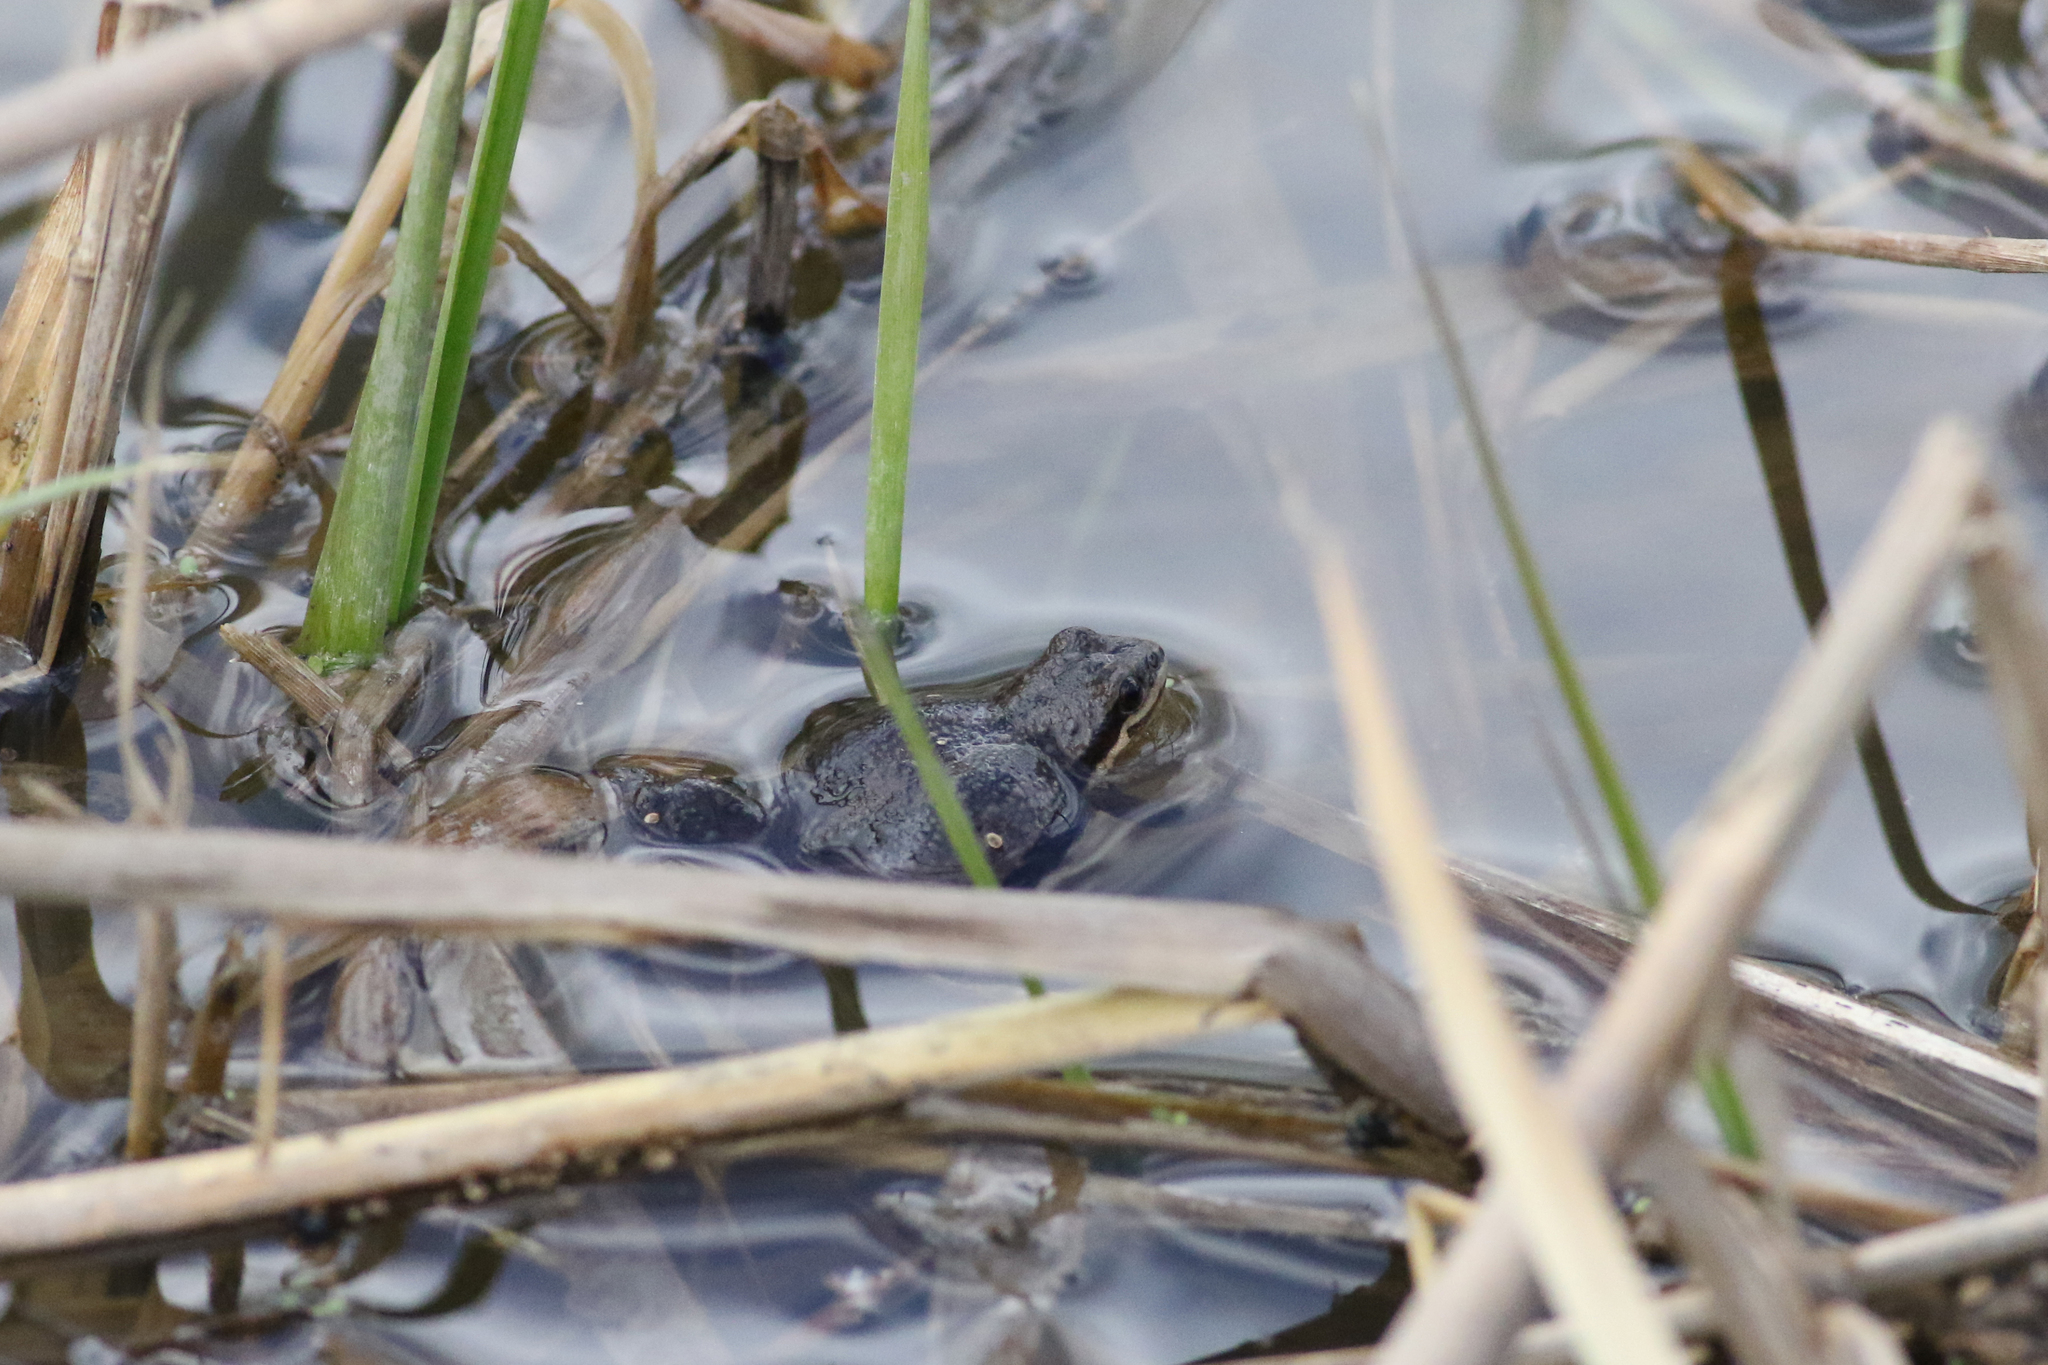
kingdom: Animalia
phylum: Chordata
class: Amphibia
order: Anura
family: Hylidae
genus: Pseudacris
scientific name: Pseudacris triseriata
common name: Western chorus frog
